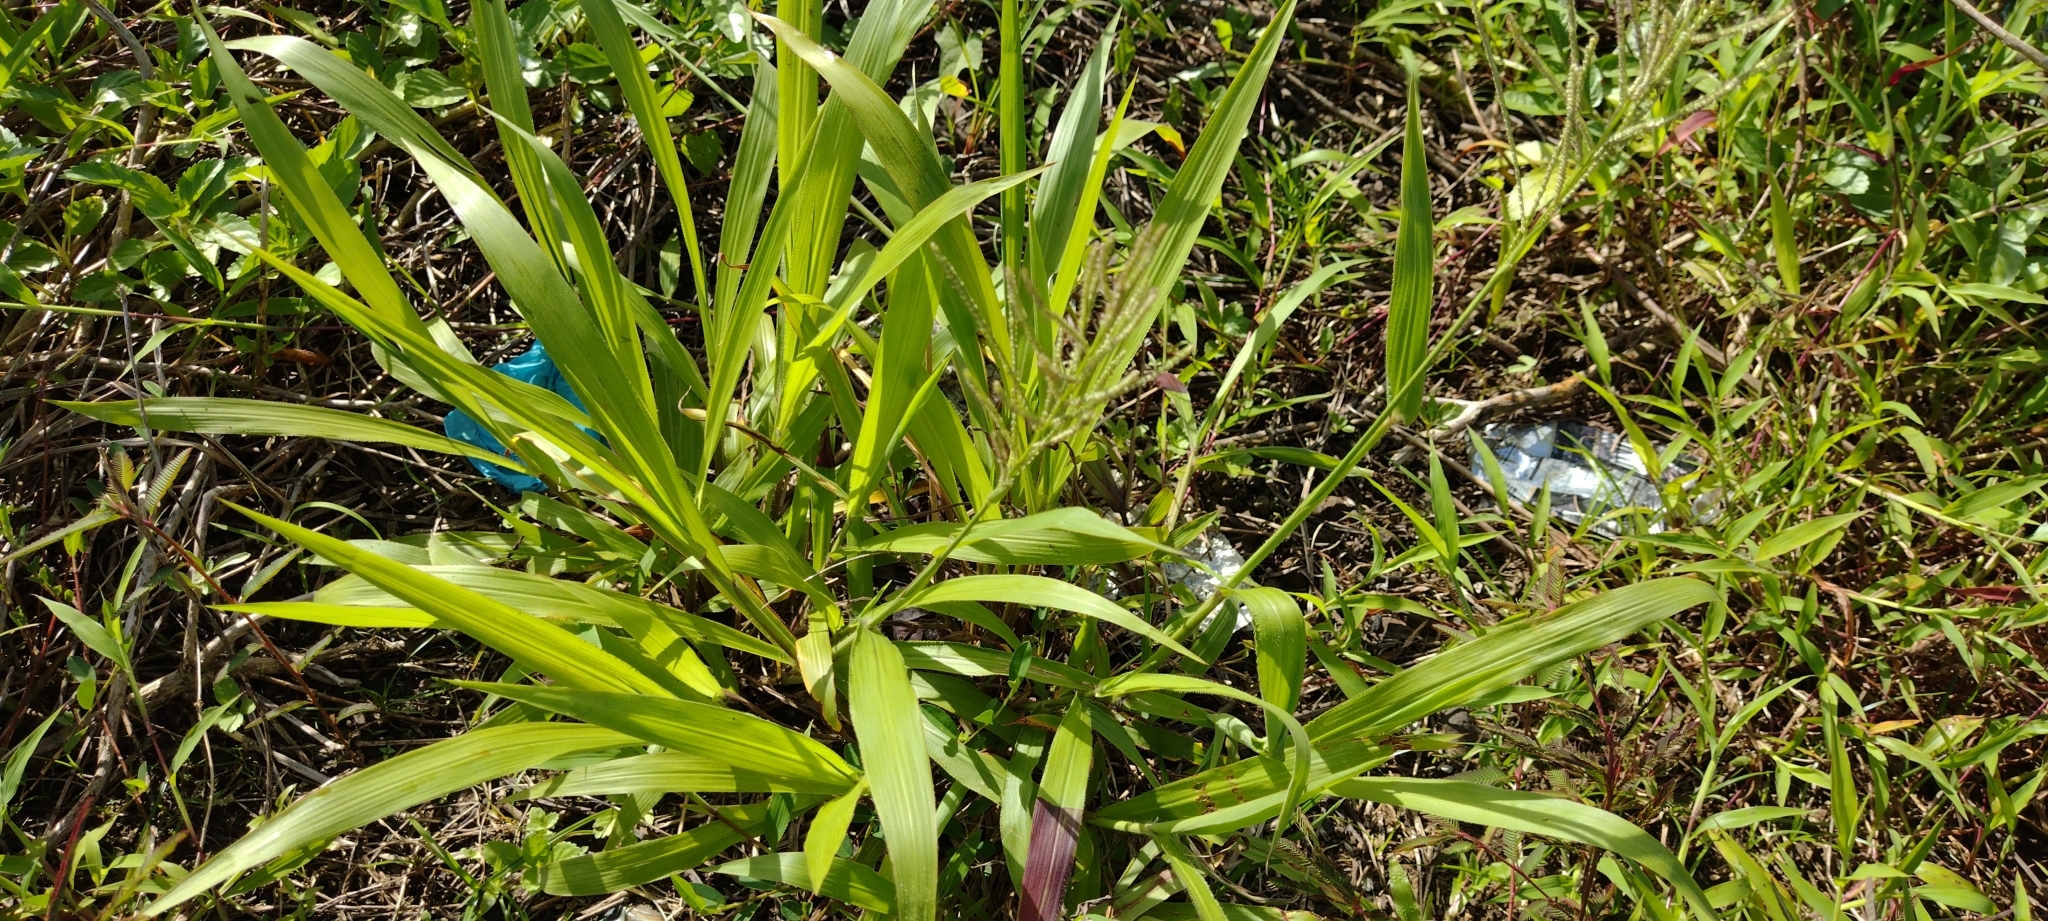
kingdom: Plantae
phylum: Tracheophyta
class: Liliopsida
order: Poales
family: Poaceae
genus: Paspalum
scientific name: Paspalum paniculatum
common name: Arrocillo
